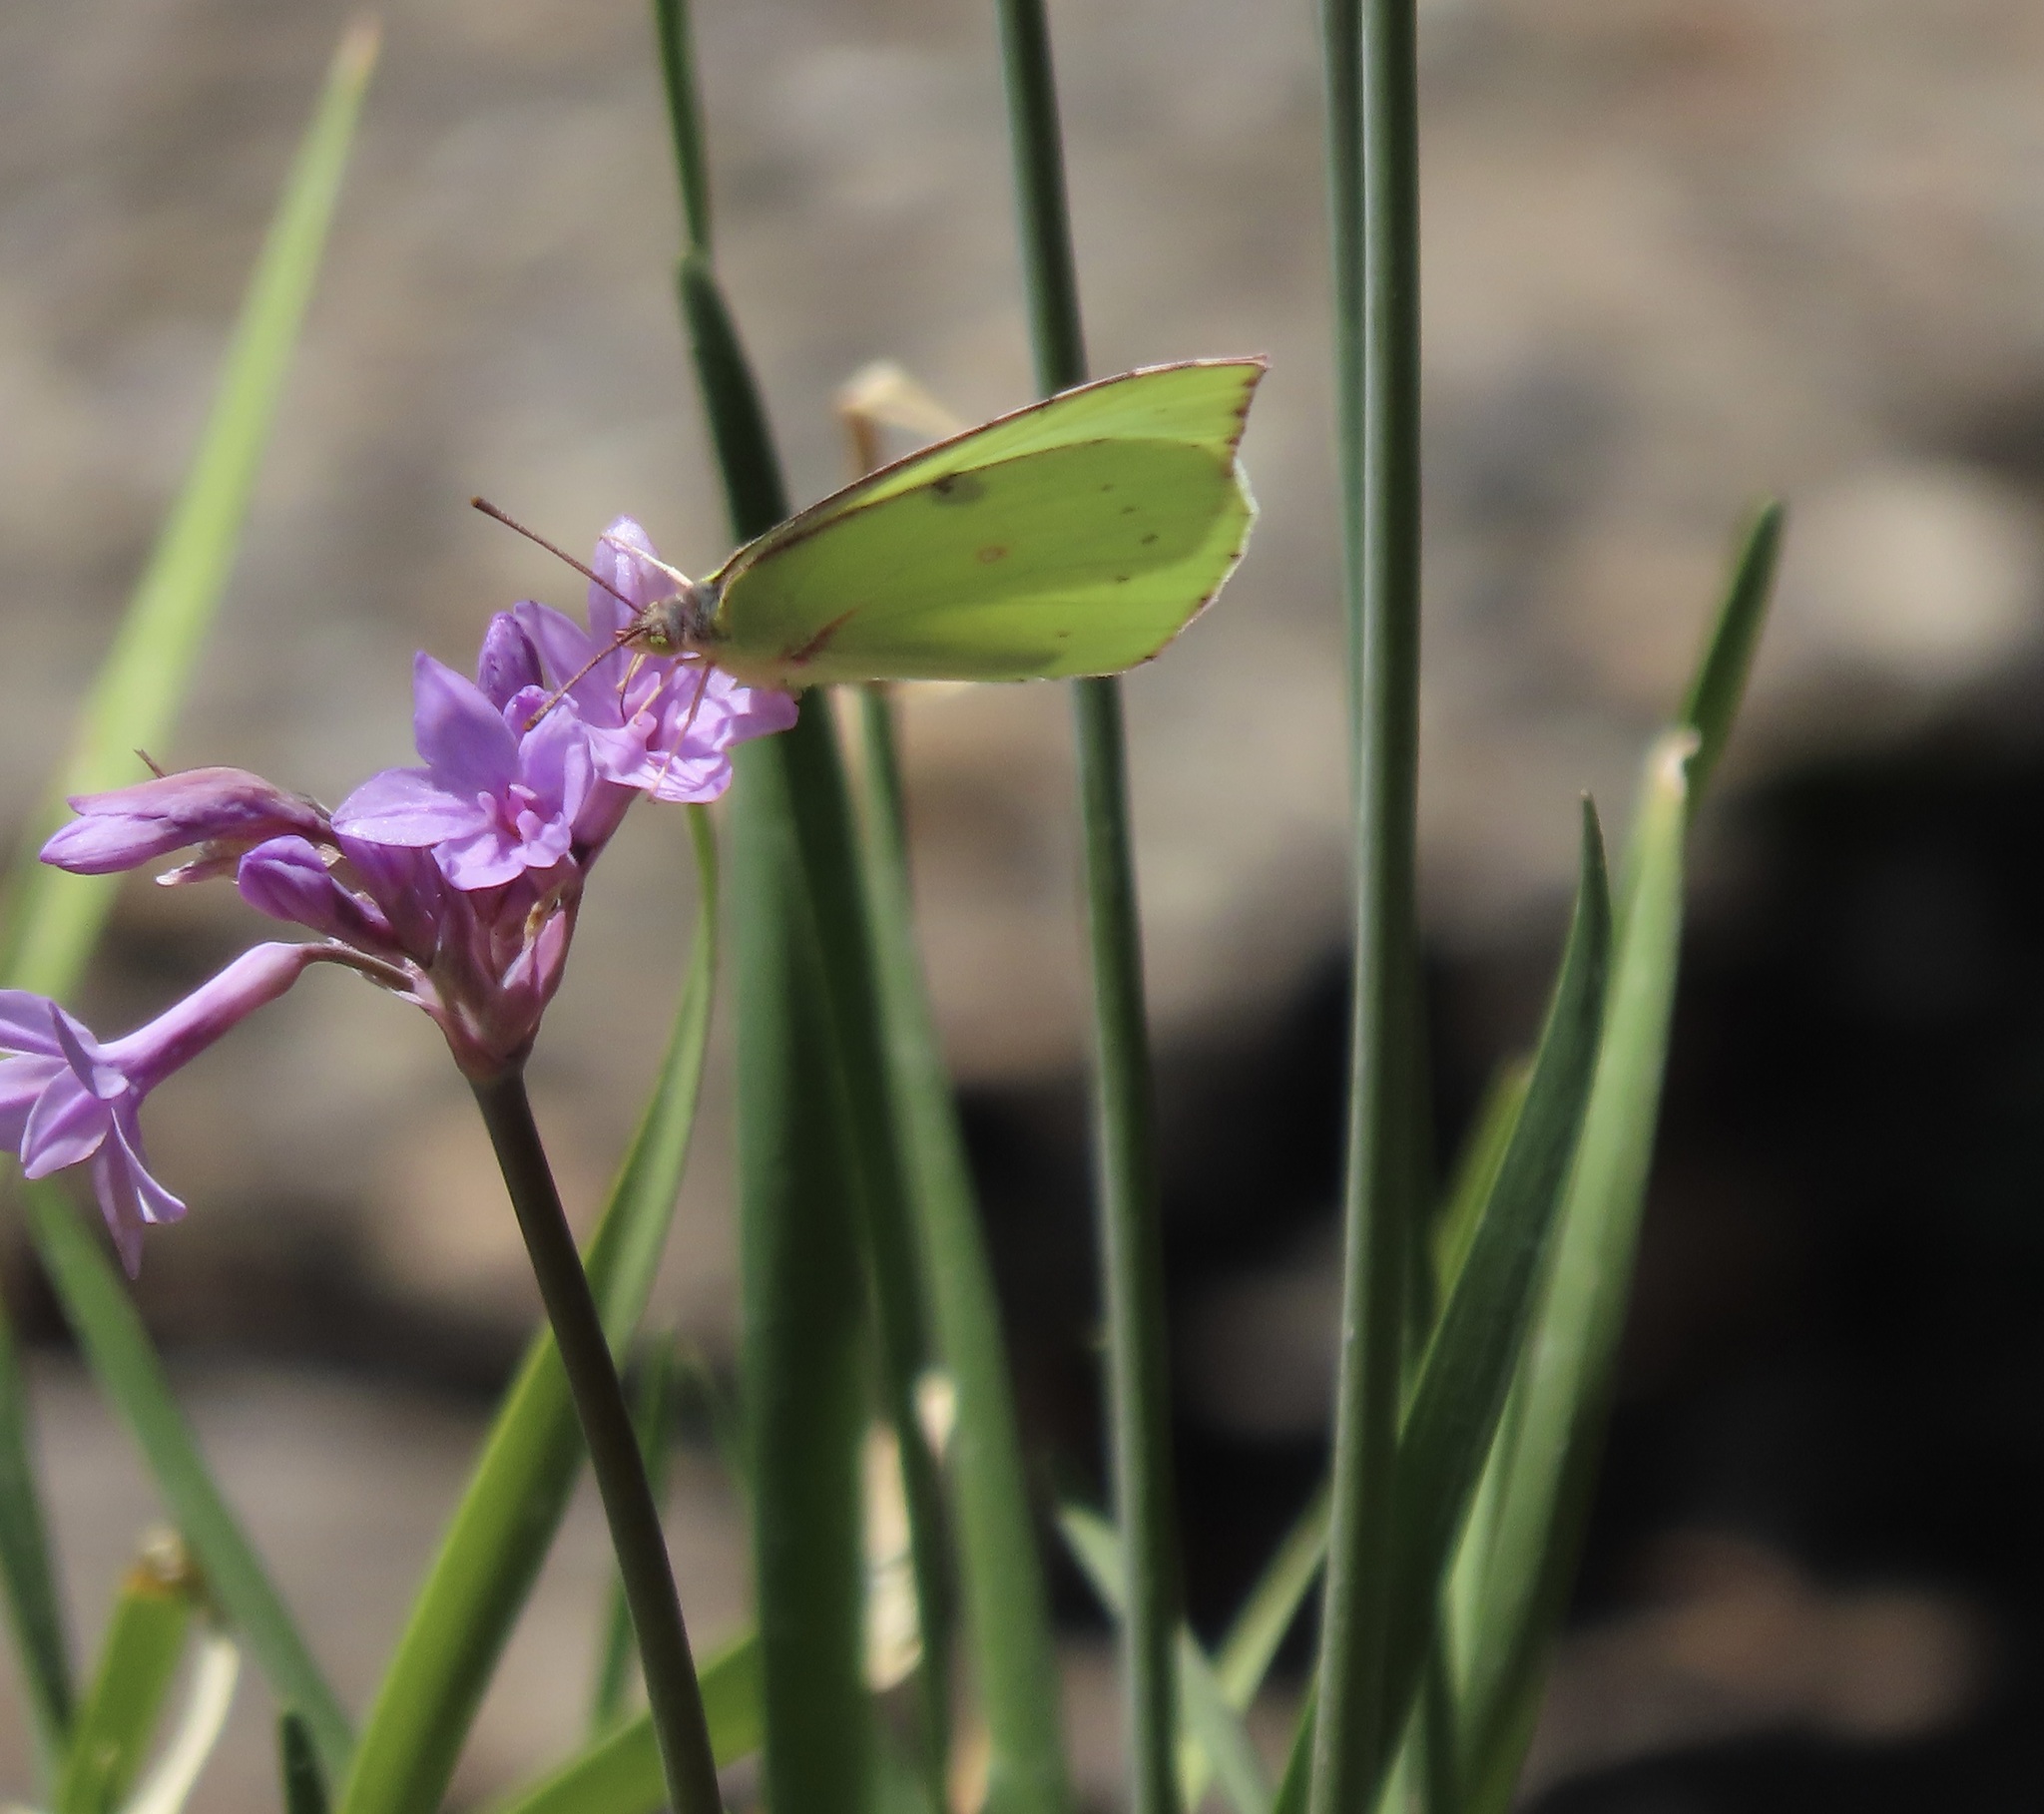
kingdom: Animalia
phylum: Arthropoda
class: Insecta
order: Lepidoptera
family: Pieridae
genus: Zerene
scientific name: Zerene eurydice
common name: California dogface
